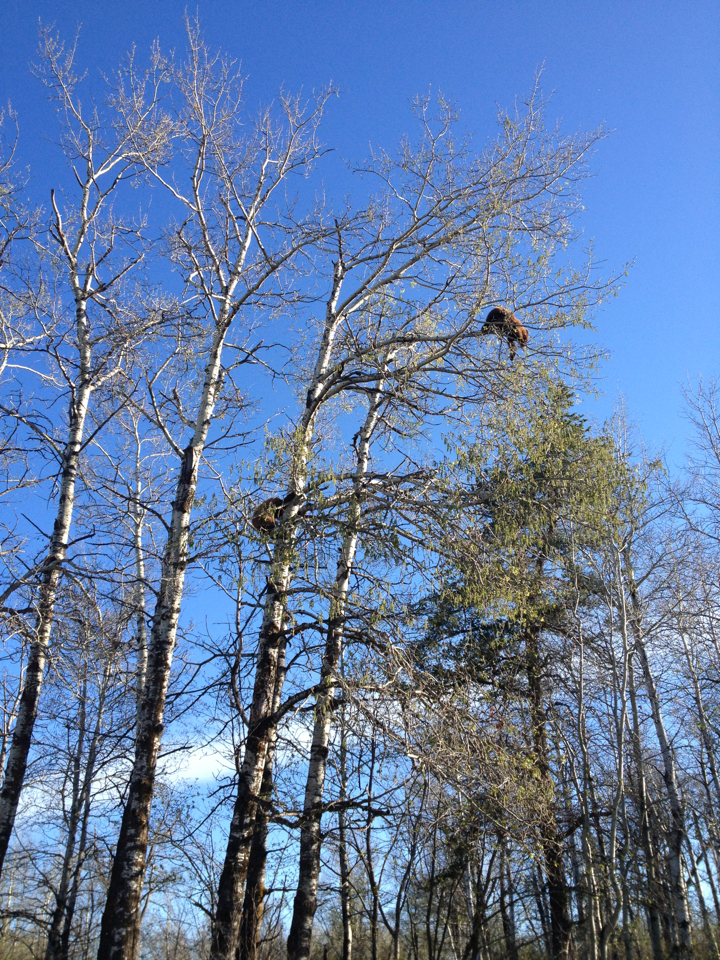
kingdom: Animalia
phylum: Chordata
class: Mammalia
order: Carnivora
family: Ursidae
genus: Ursus
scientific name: Ursus americanus
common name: American black bear
